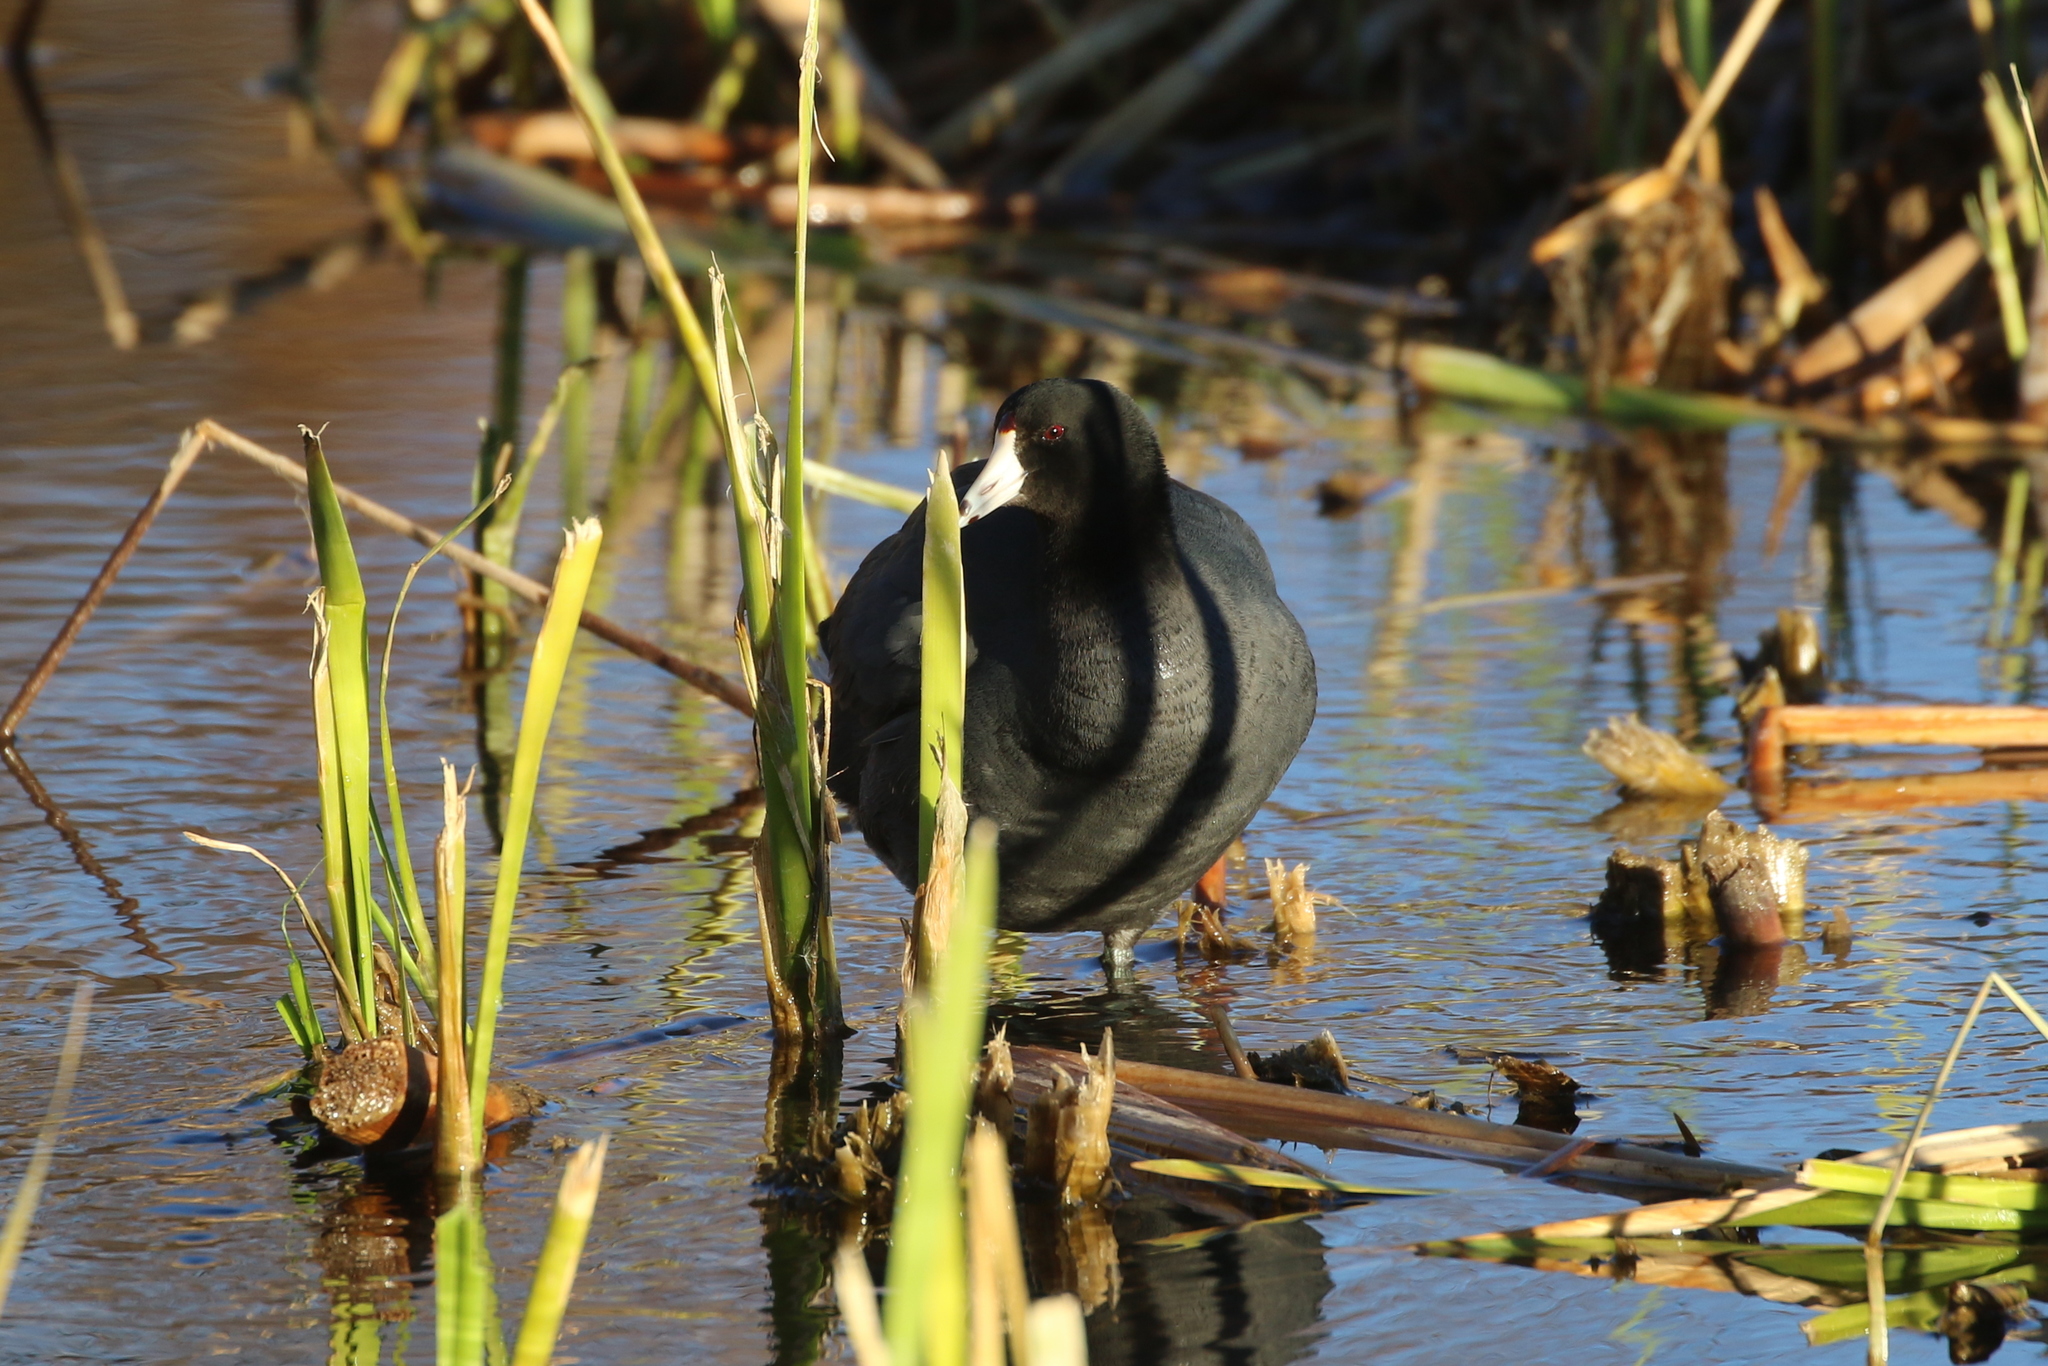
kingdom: Animalia
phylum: Chordata
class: Aves
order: Gruiformes
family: Rallidae
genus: Fulica
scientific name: Fulica americana
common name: American coot
